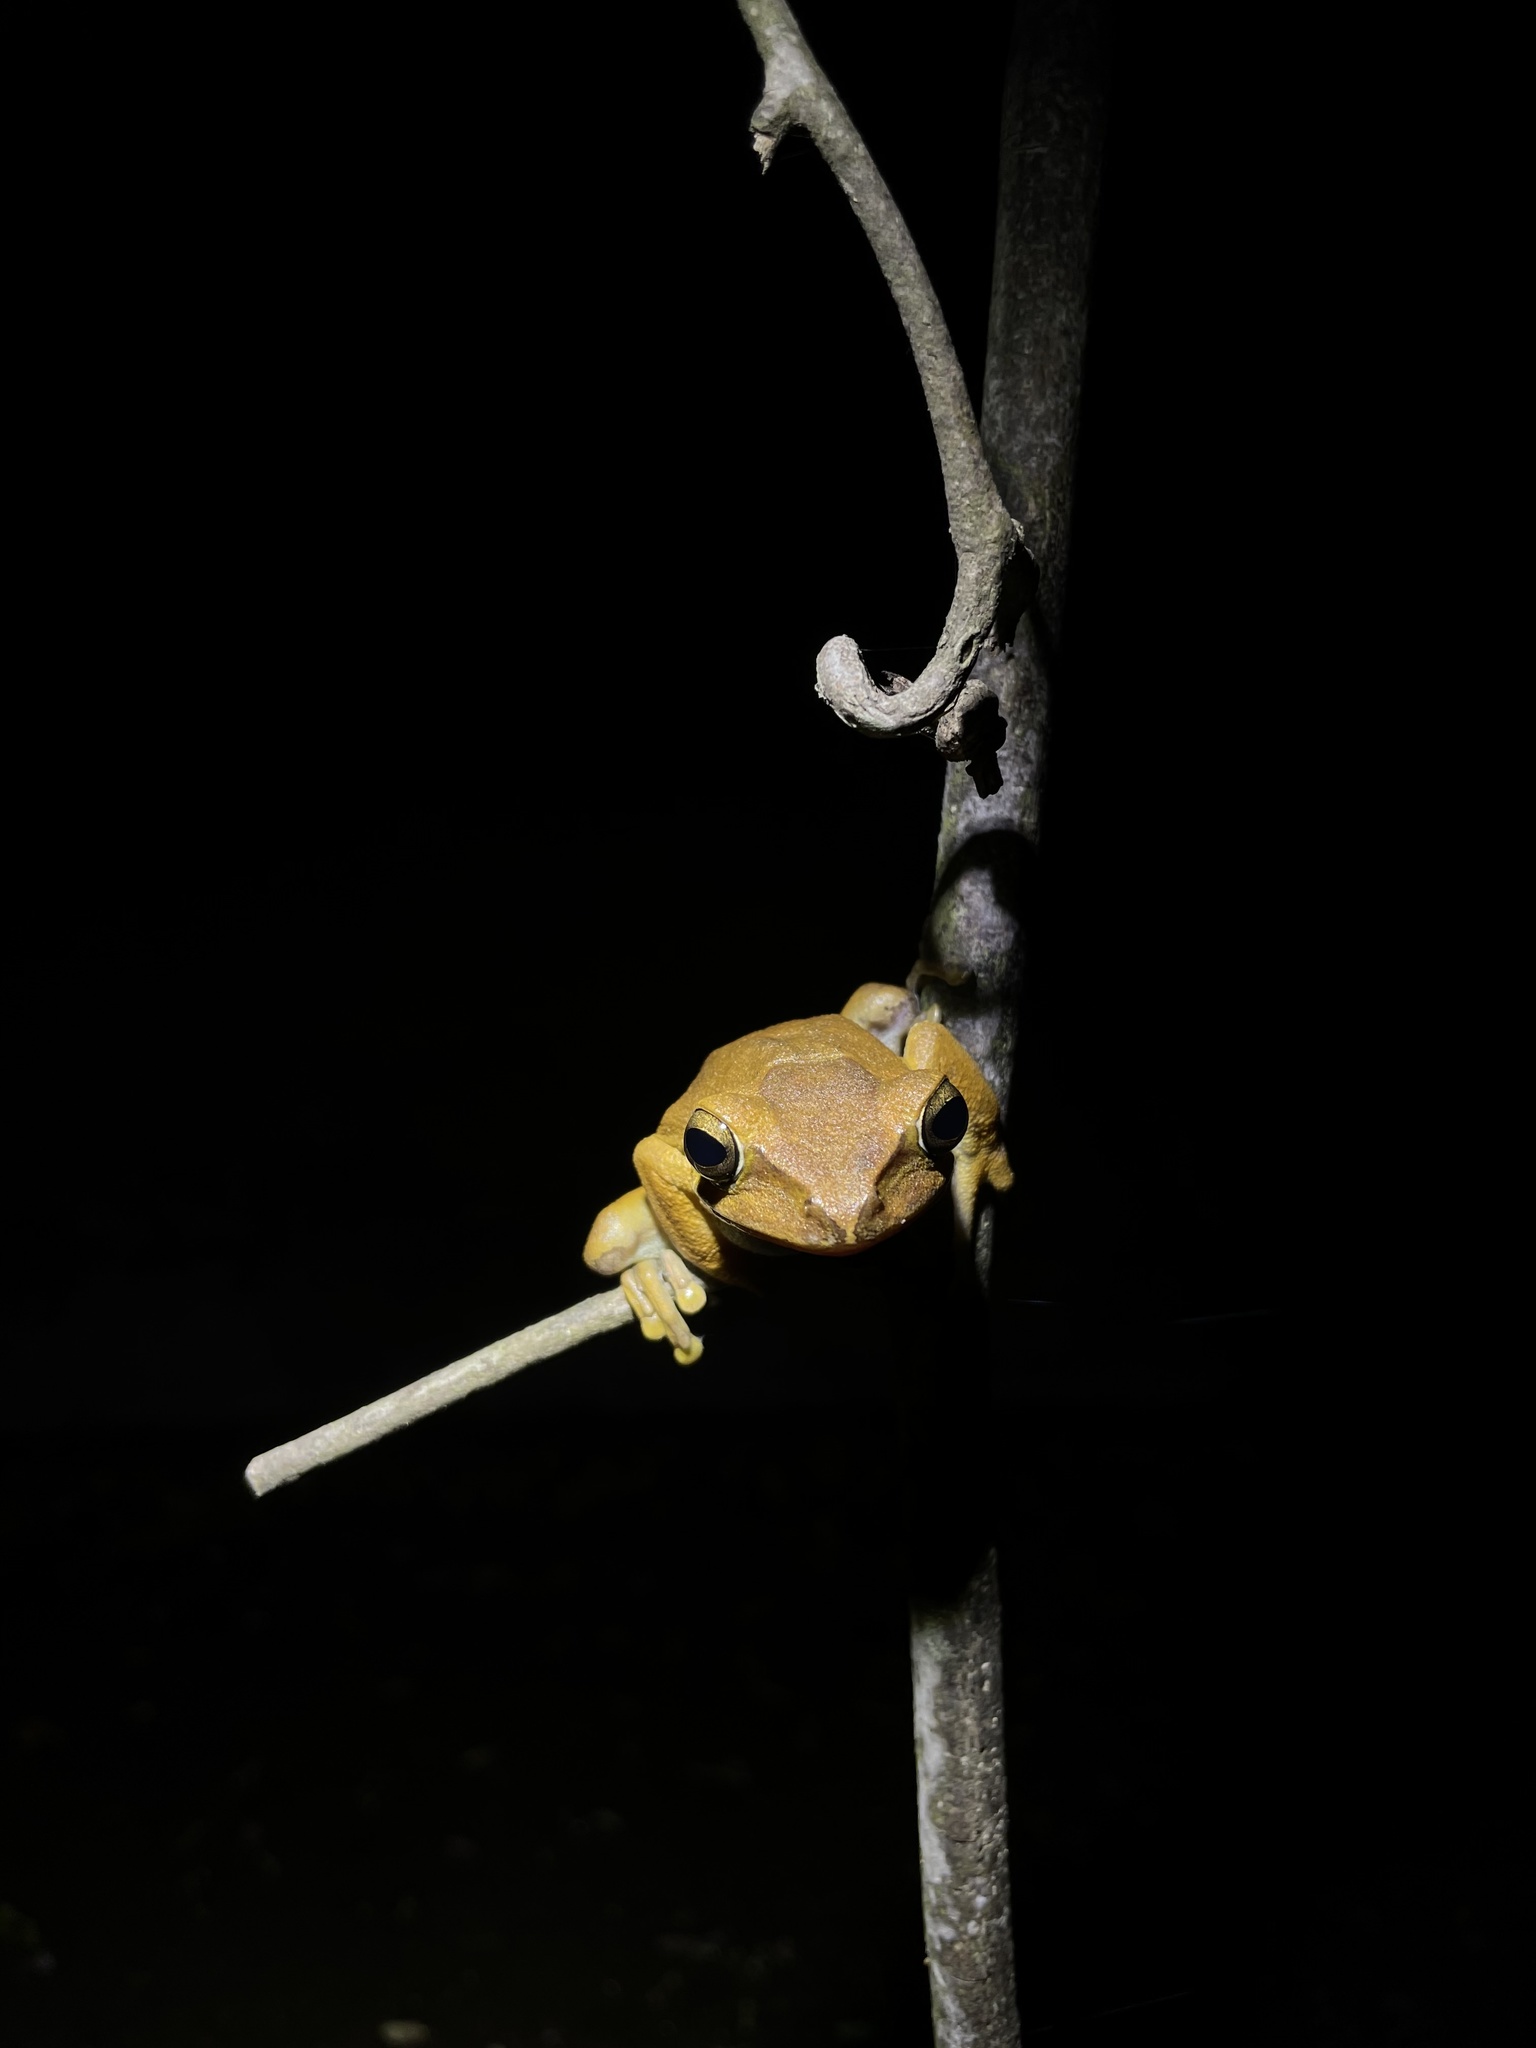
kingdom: Animalia
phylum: Chordata
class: Amphibia
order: Anura
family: Rhacophoridae
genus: Polypedates
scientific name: Polypedates megacephalus
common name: Hong kong whipping frog
